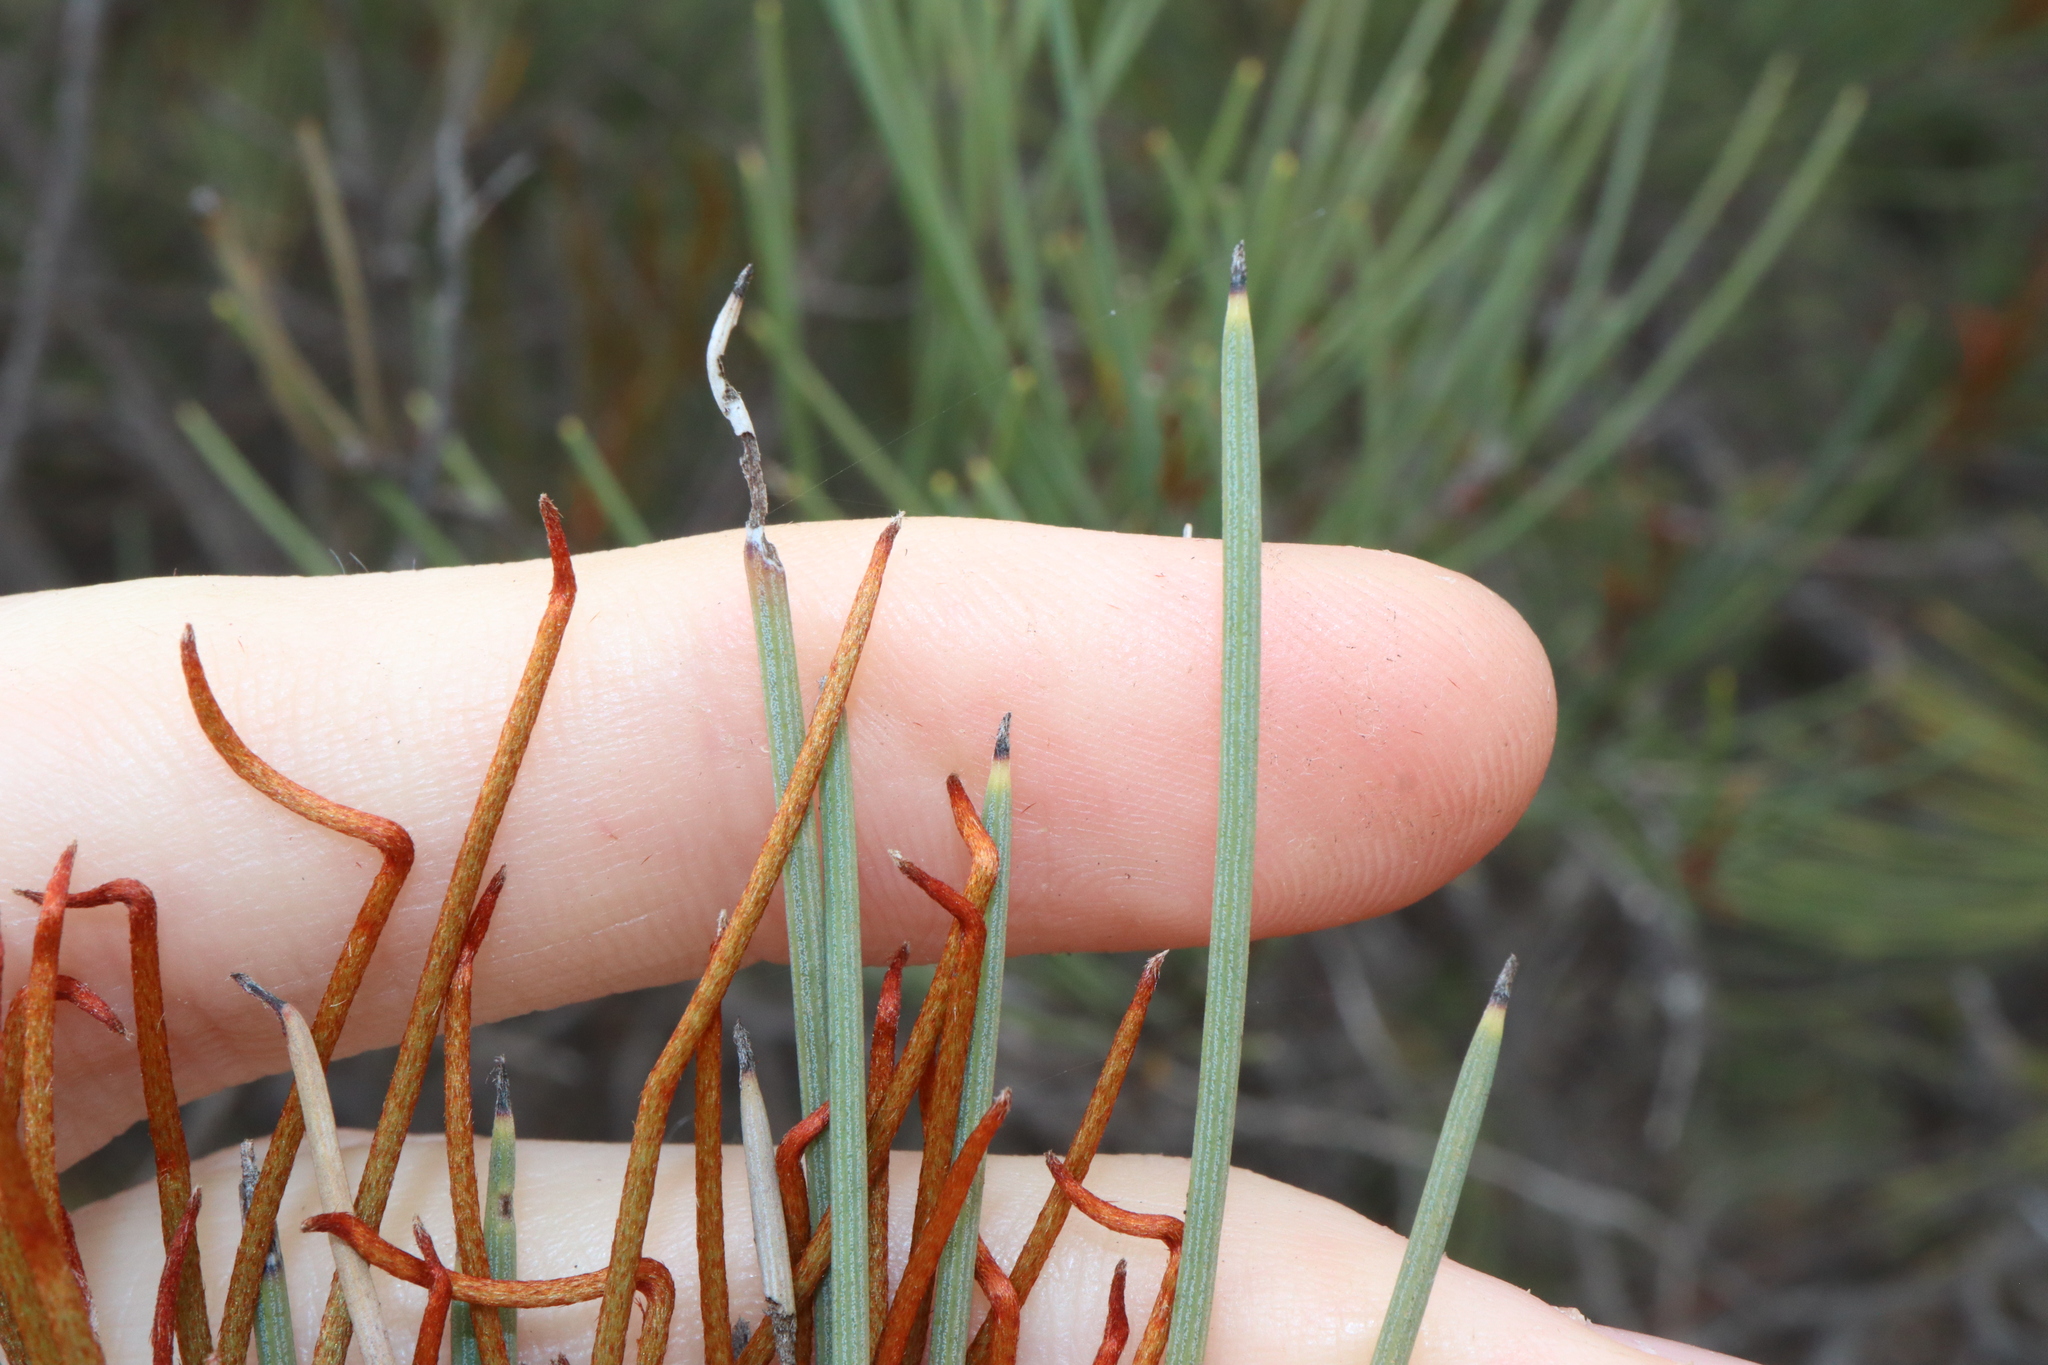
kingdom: Plantae
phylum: Tracheophyta
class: Magnoliopsida
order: Proteales
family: Proteaceae
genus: Hakea
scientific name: Hakea subsulcata
